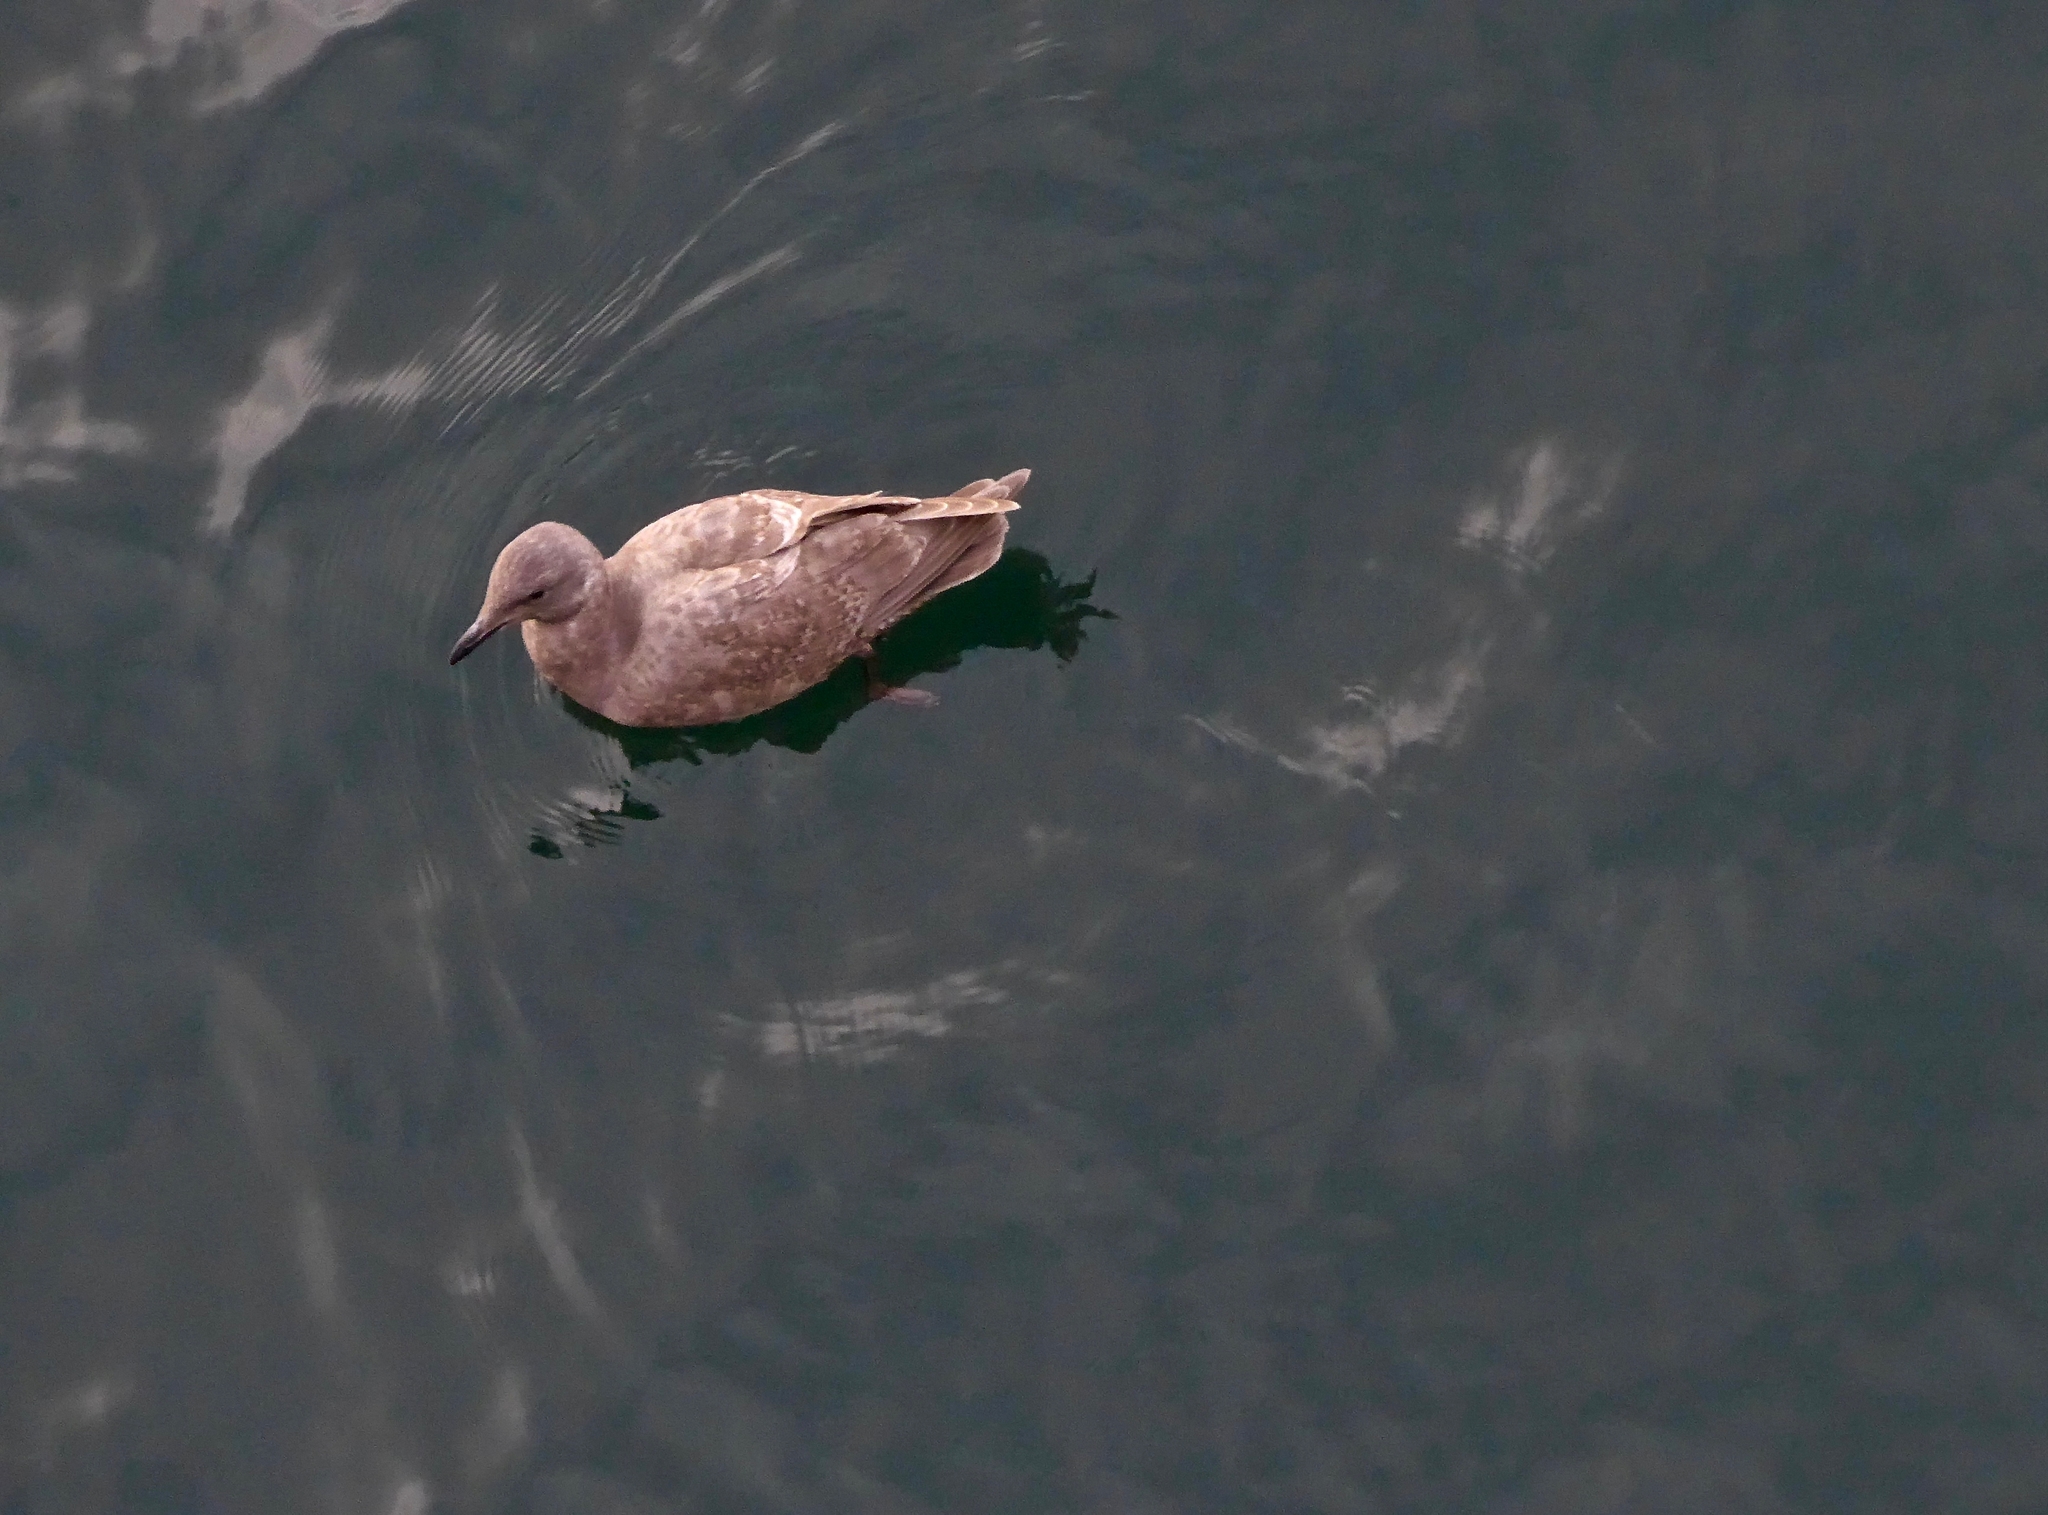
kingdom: Animalia
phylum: Chordata
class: Aves
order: Charadriiformes
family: Laridae
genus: Larus
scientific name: Larus
